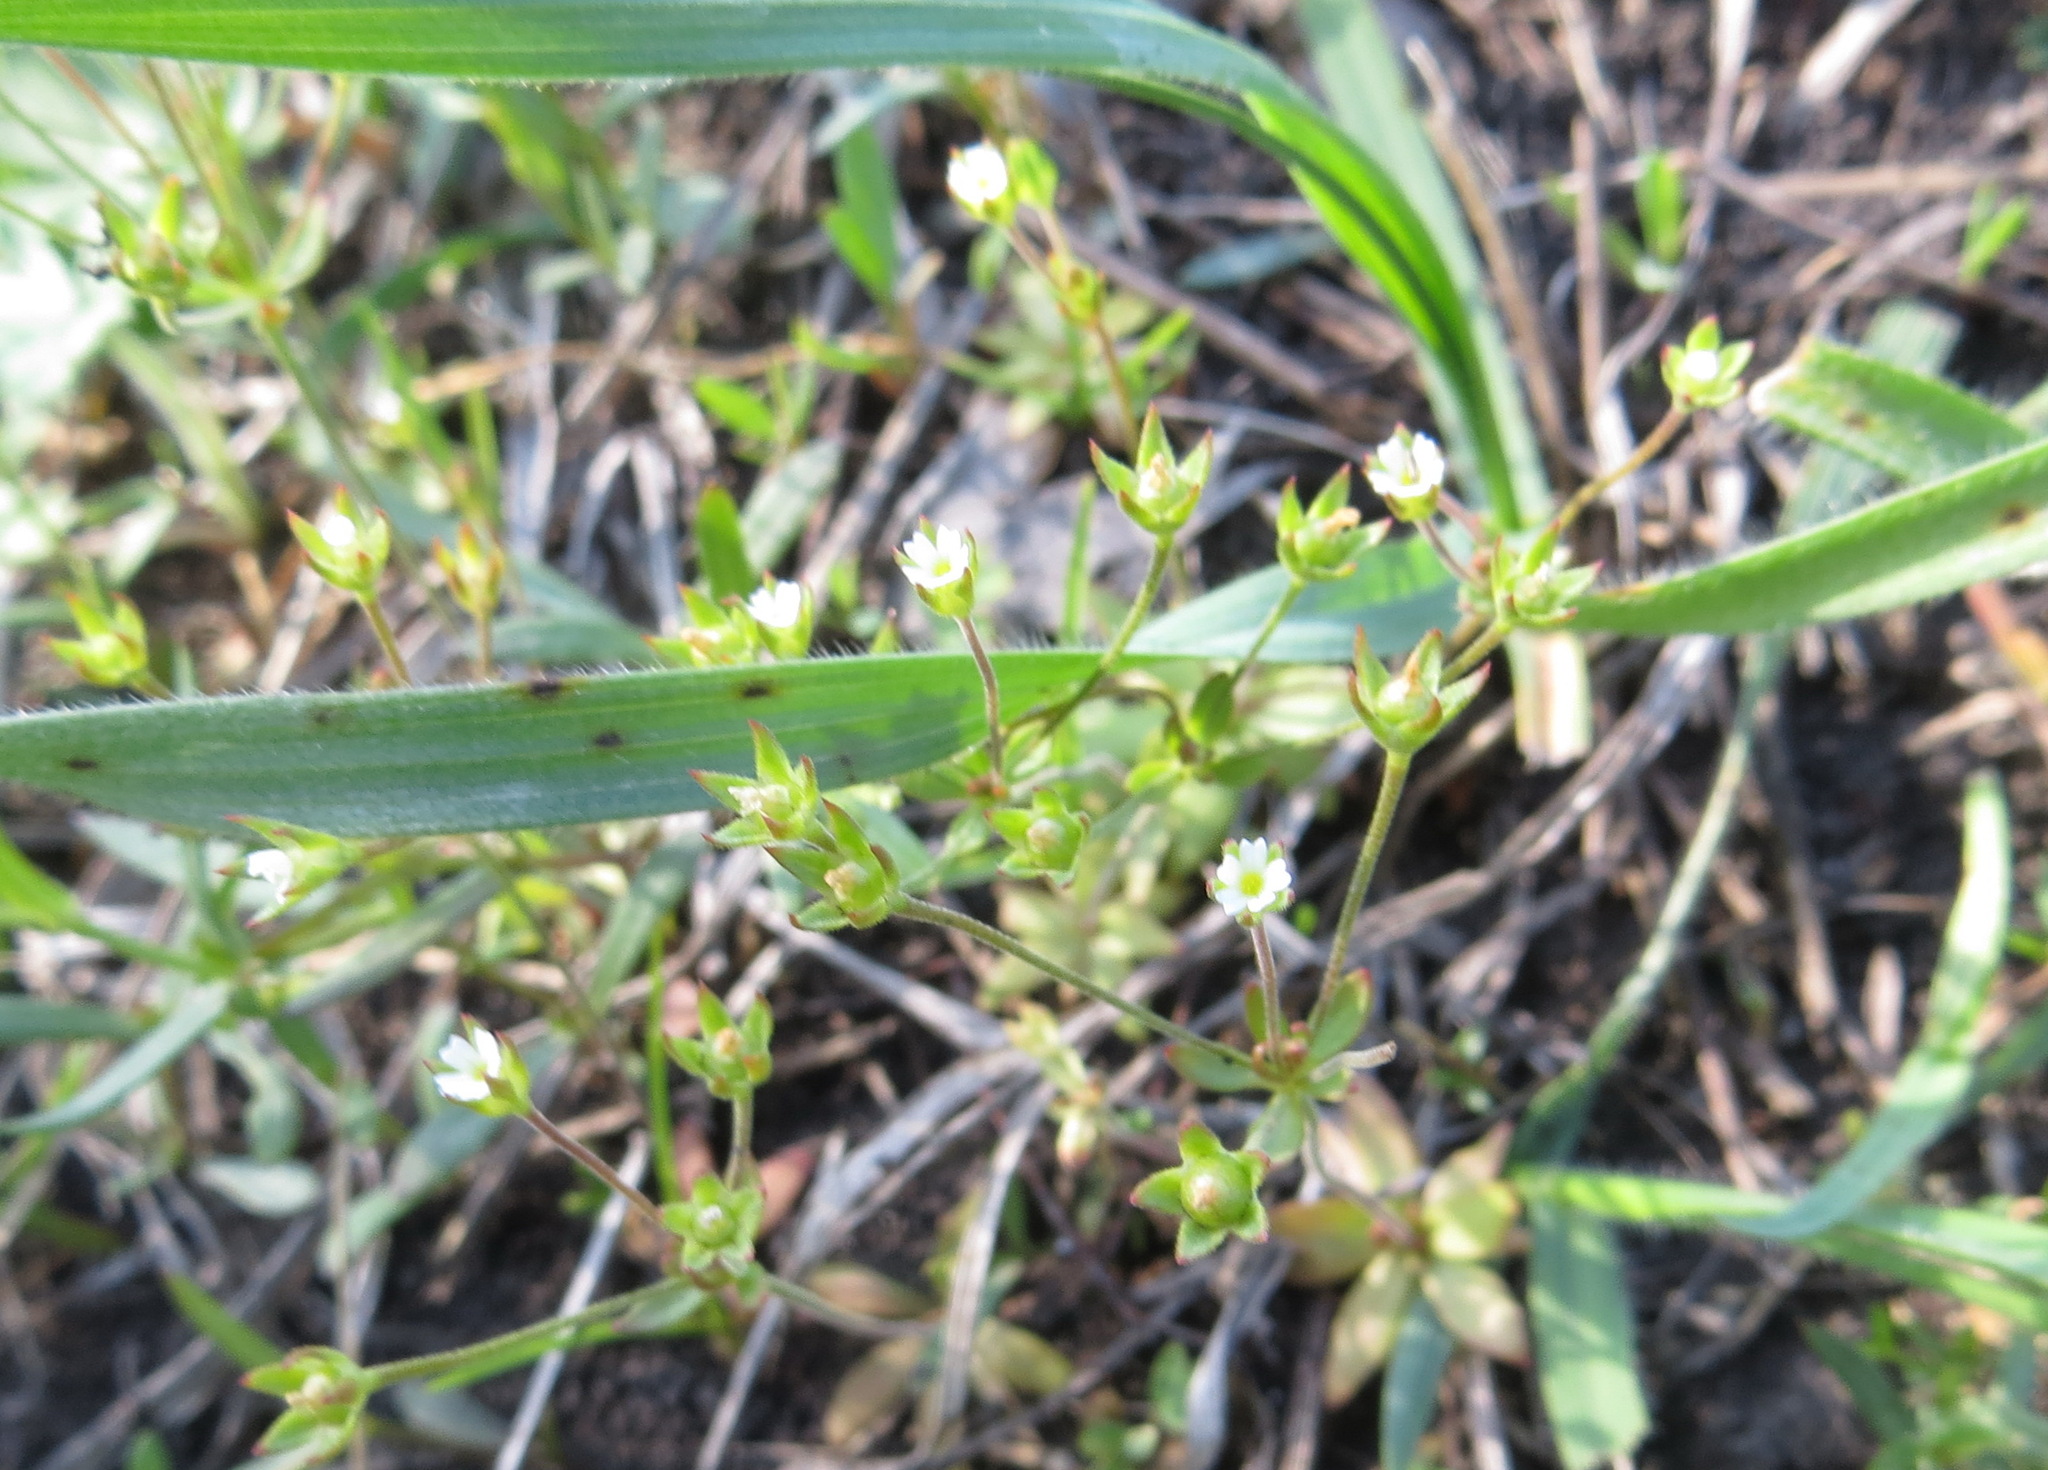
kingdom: Plantae
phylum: Tracheophyta
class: Magnoliopsida
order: Ericales
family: Primulaceae
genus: Androsace
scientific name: Androsace elongata
